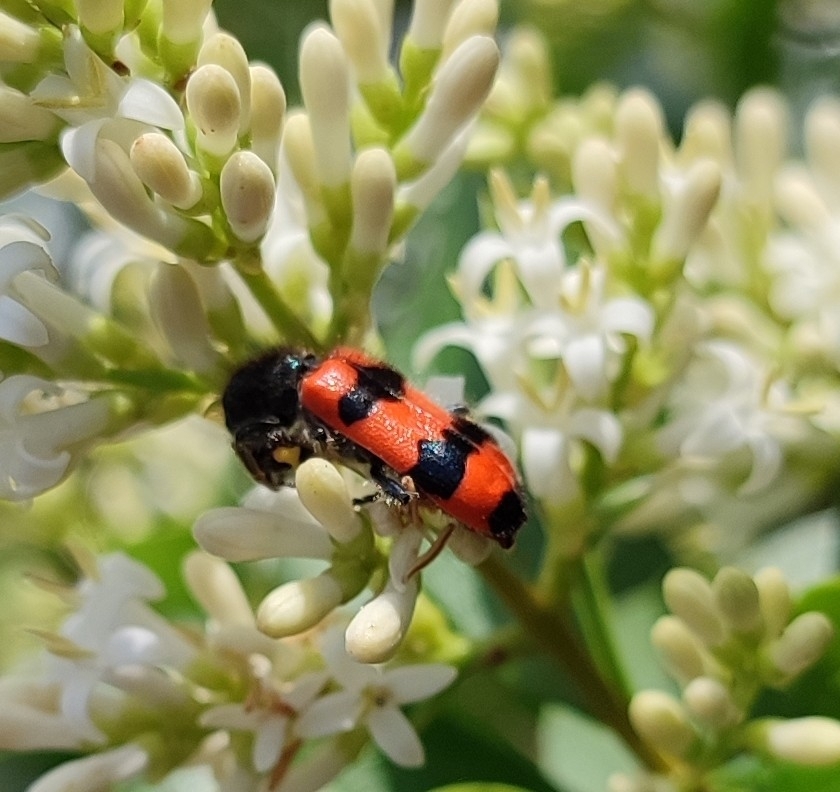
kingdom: Animalia
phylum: Arthropoda
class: Insecta
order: Coleoptera
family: Cleridae
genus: Trichodes
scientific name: Trichodes apiarius
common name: Bee-eating beetle
